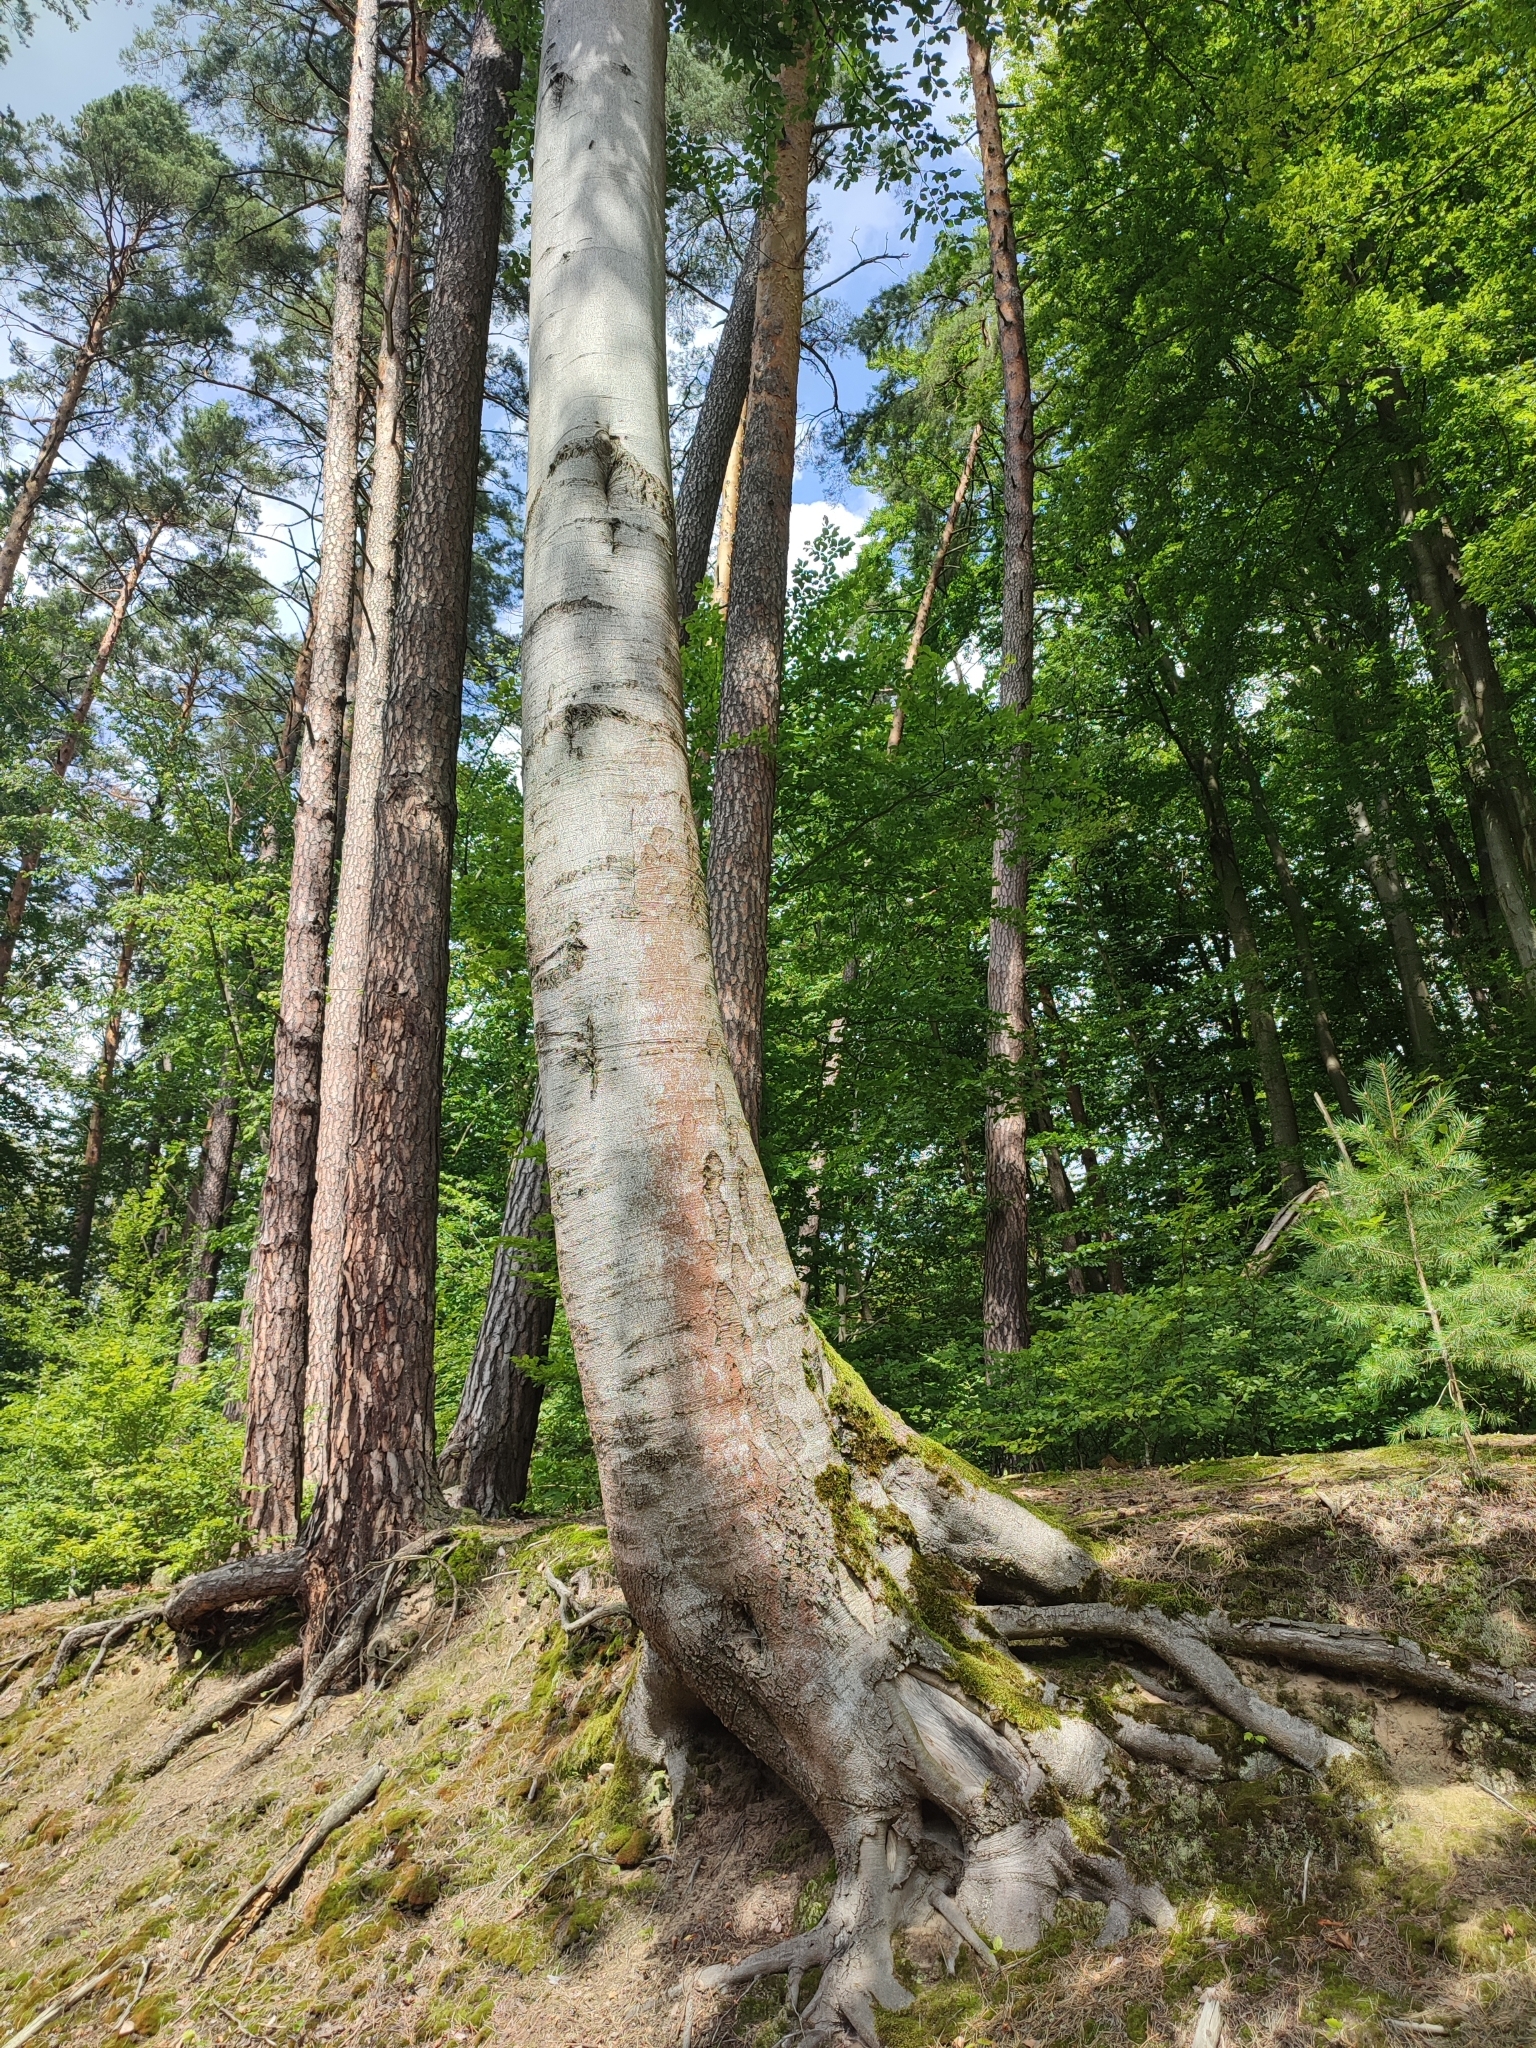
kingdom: Plantae
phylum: Tracheophyta
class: Magnoliopsida
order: Fagales
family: Fagaceae
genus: Fagus
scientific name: Fagus sylvatica
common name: Beech
